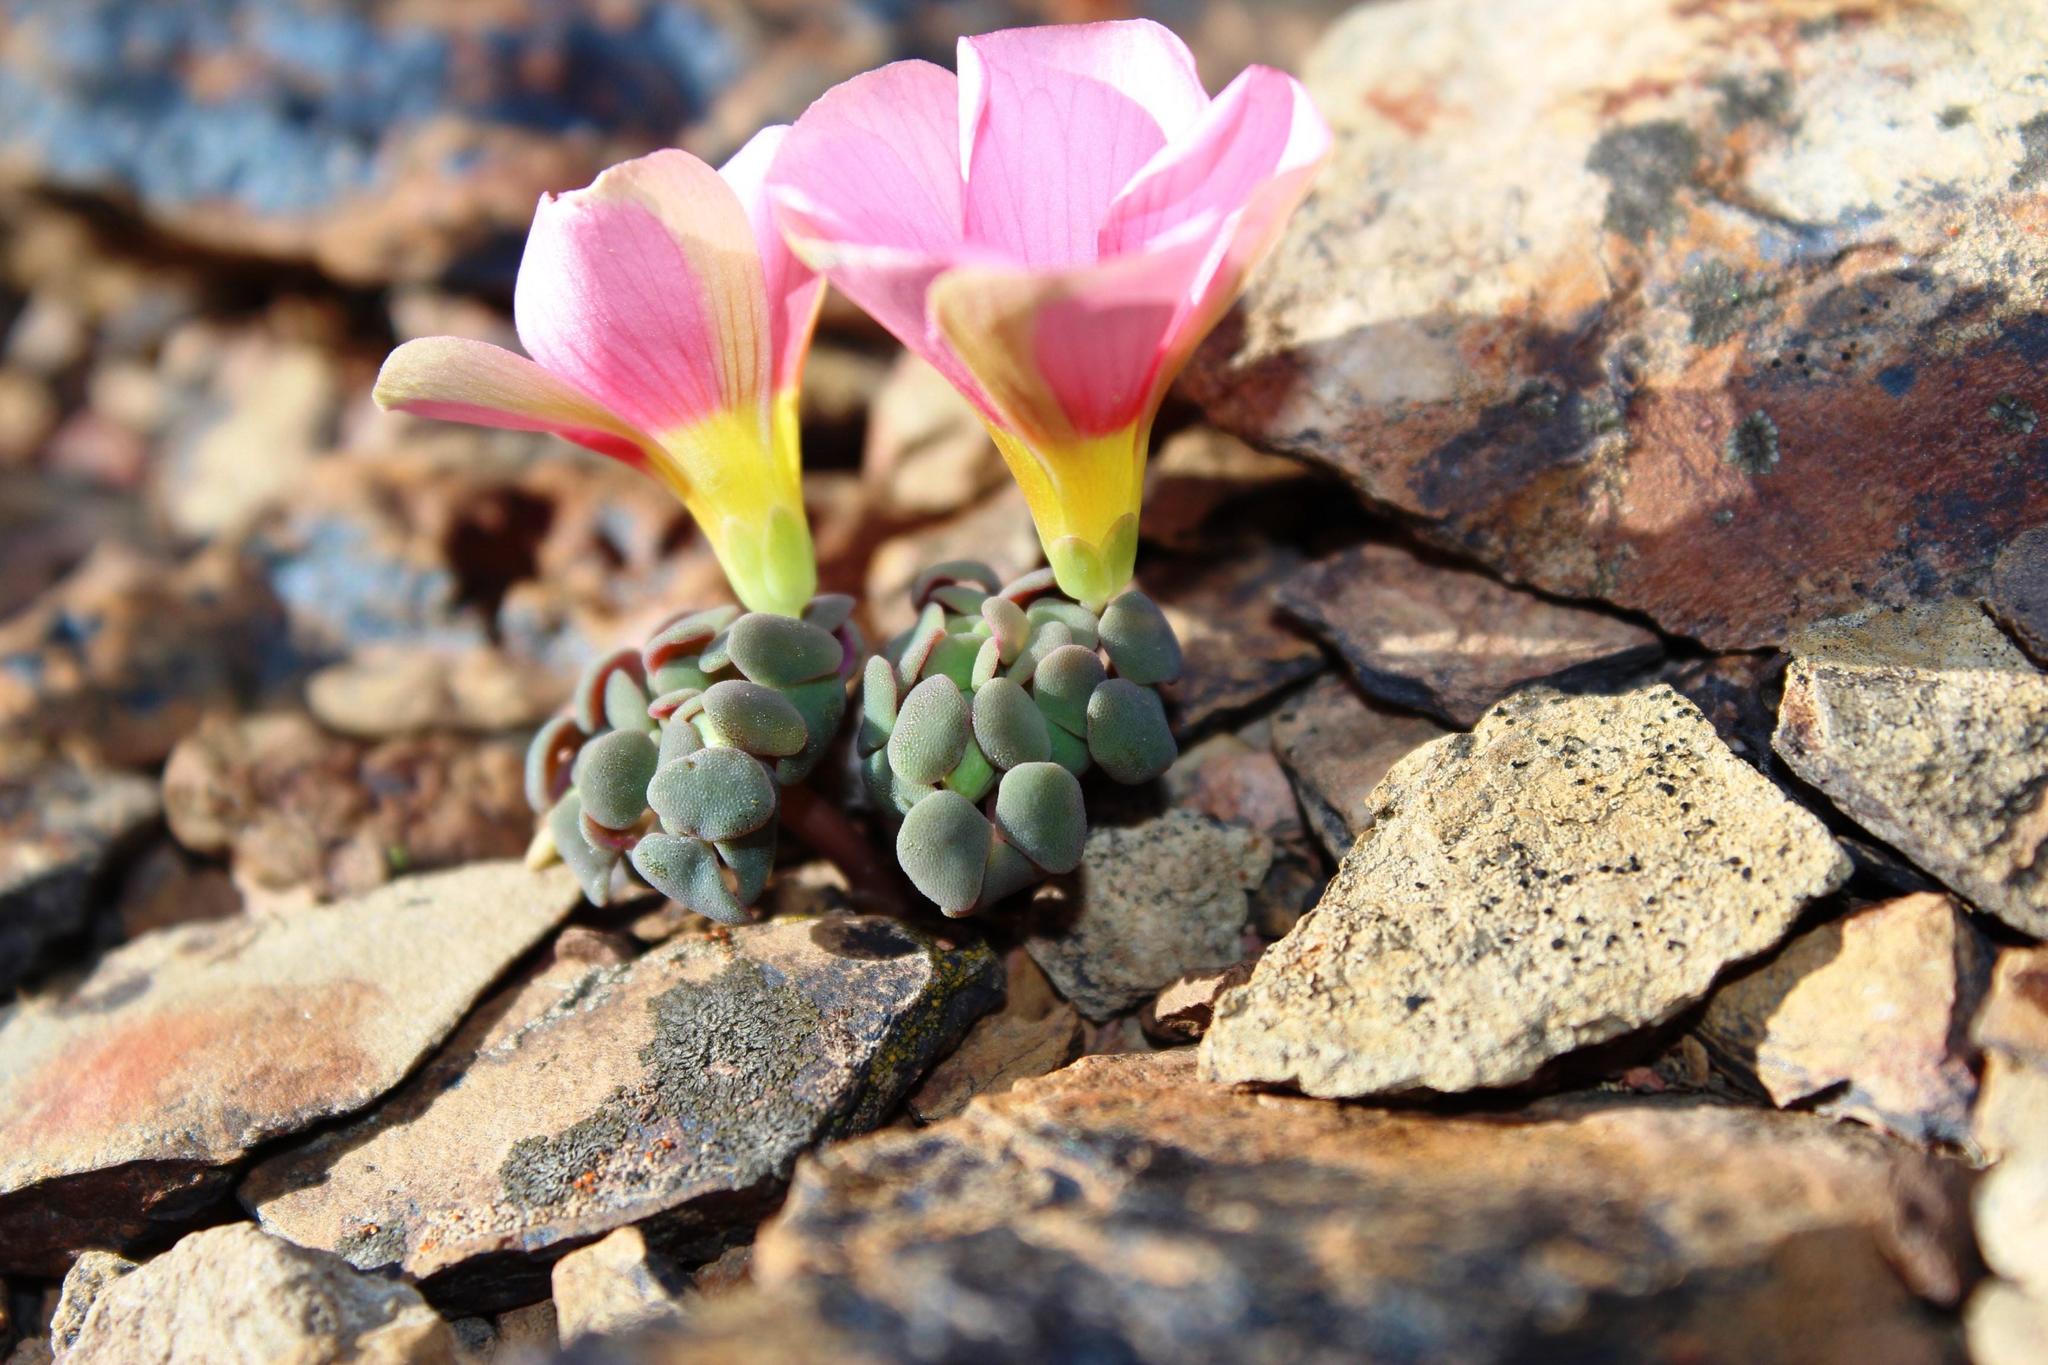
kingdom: Plantae
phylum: Tracheophyta
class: Magnoliopsida
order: Oxalidales
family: Oxalidaceae
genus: Oxalis
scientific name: Oxalis convexula
